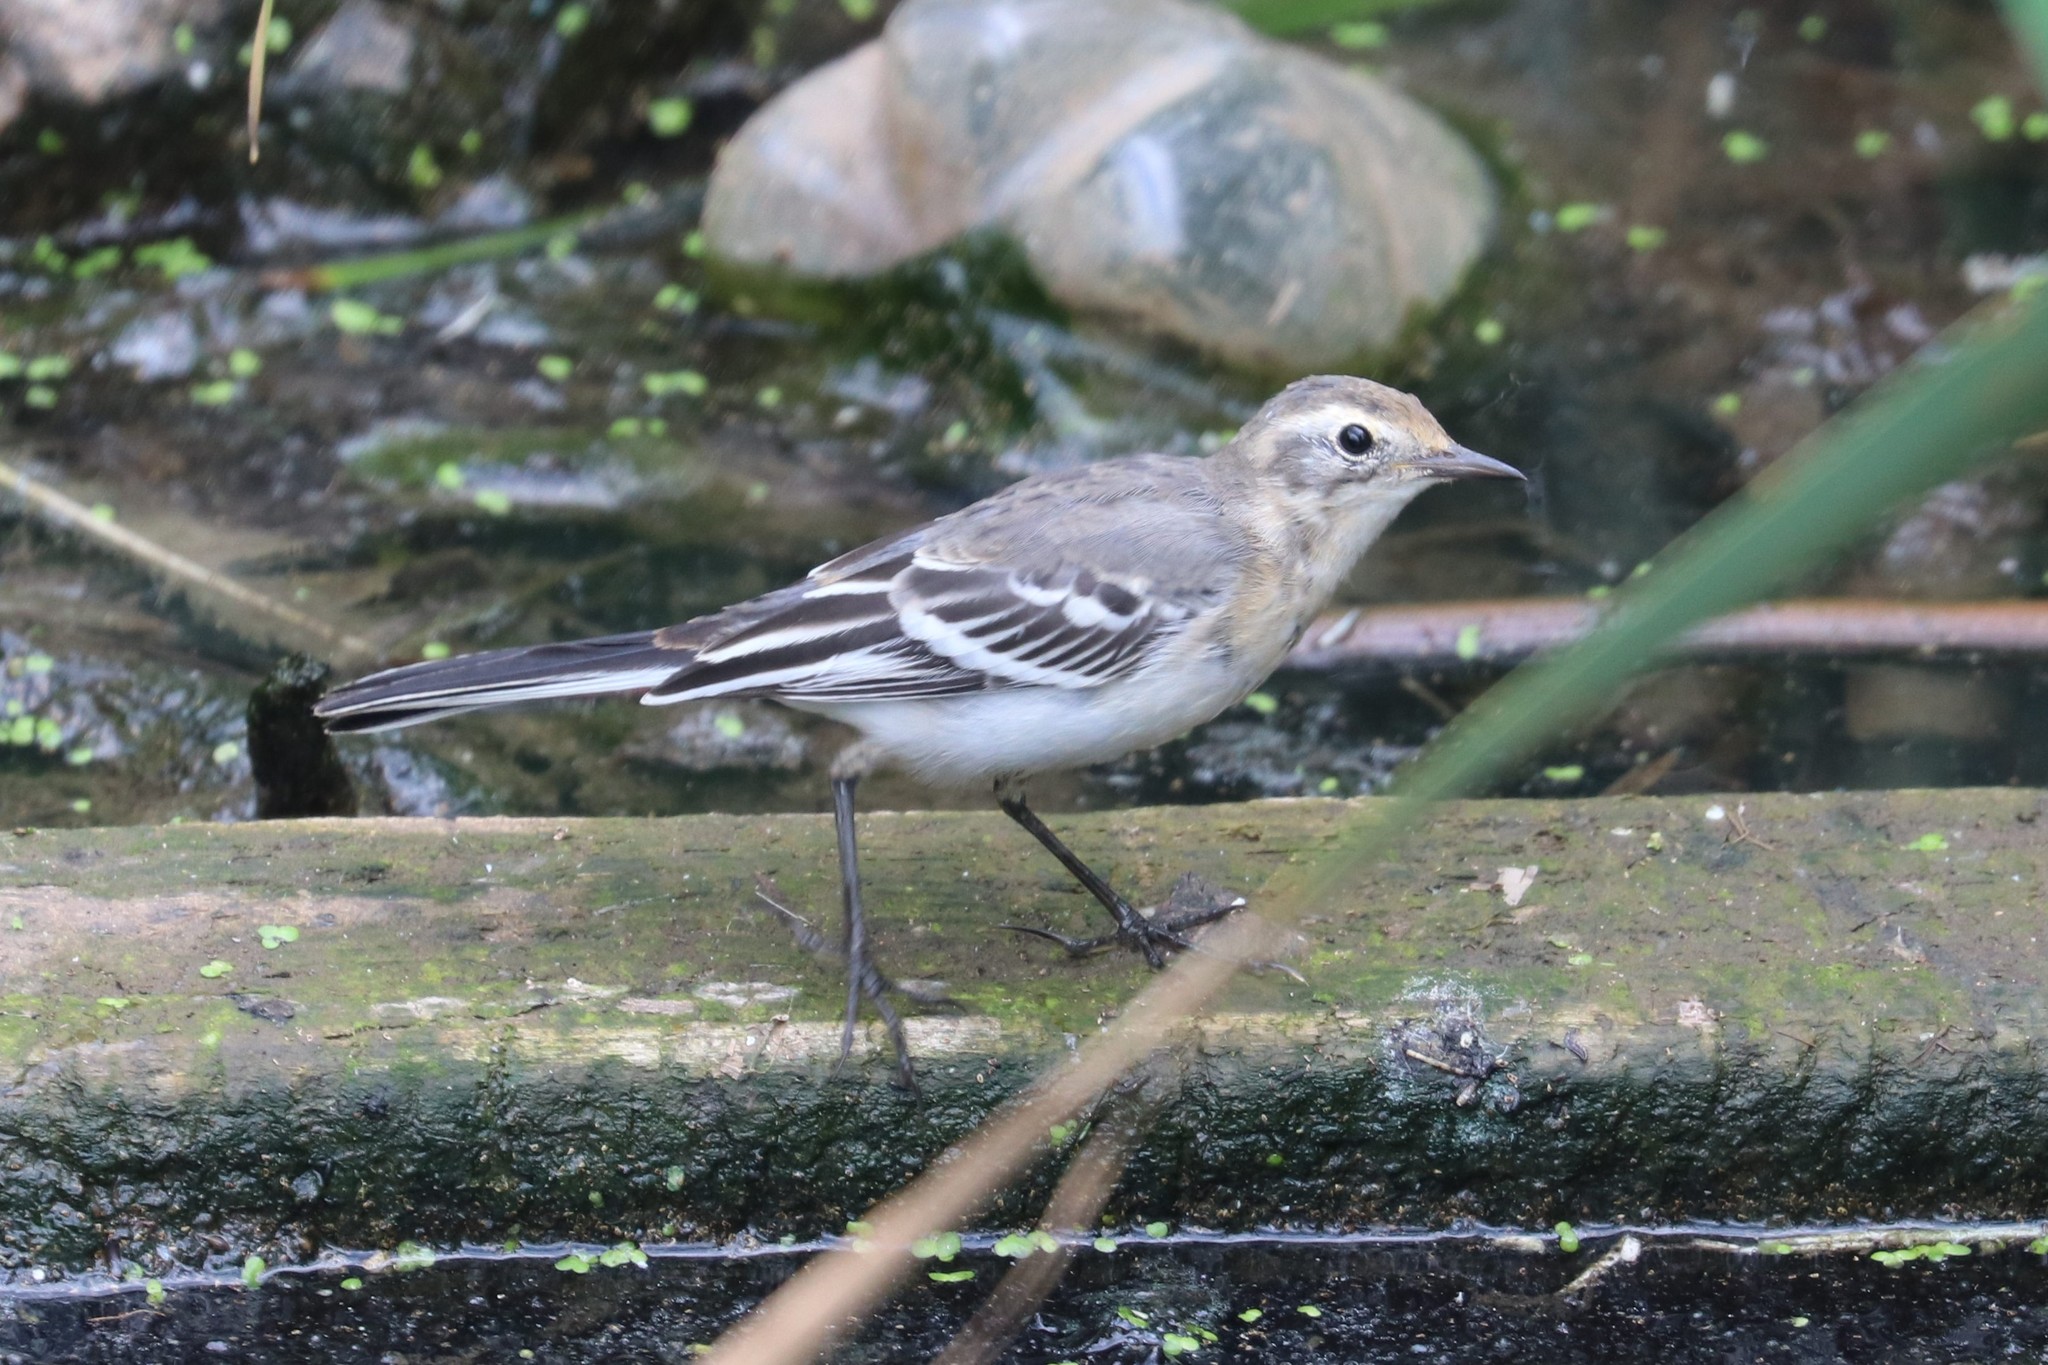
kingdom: Animalia
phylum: Chordata
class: Aves
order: Passeriformes
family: Motacillidae
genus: Motacilla
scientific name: Motacilla citreola
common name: Citrine wagtail
